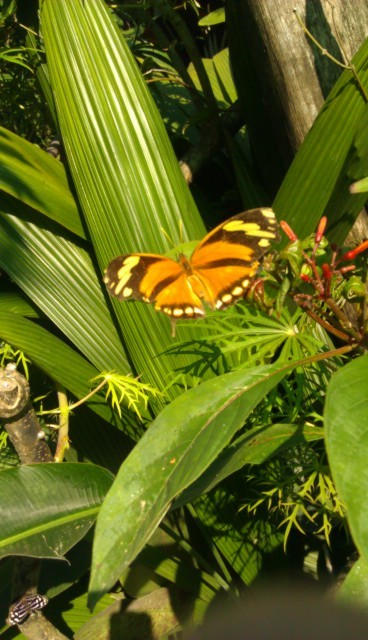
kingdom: Animalia
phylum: Arthropoda
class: Insecta
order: Lepidoptera
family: Nymphalidae
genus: Consul
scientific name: Consul fabius
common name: Tiger leafwing
